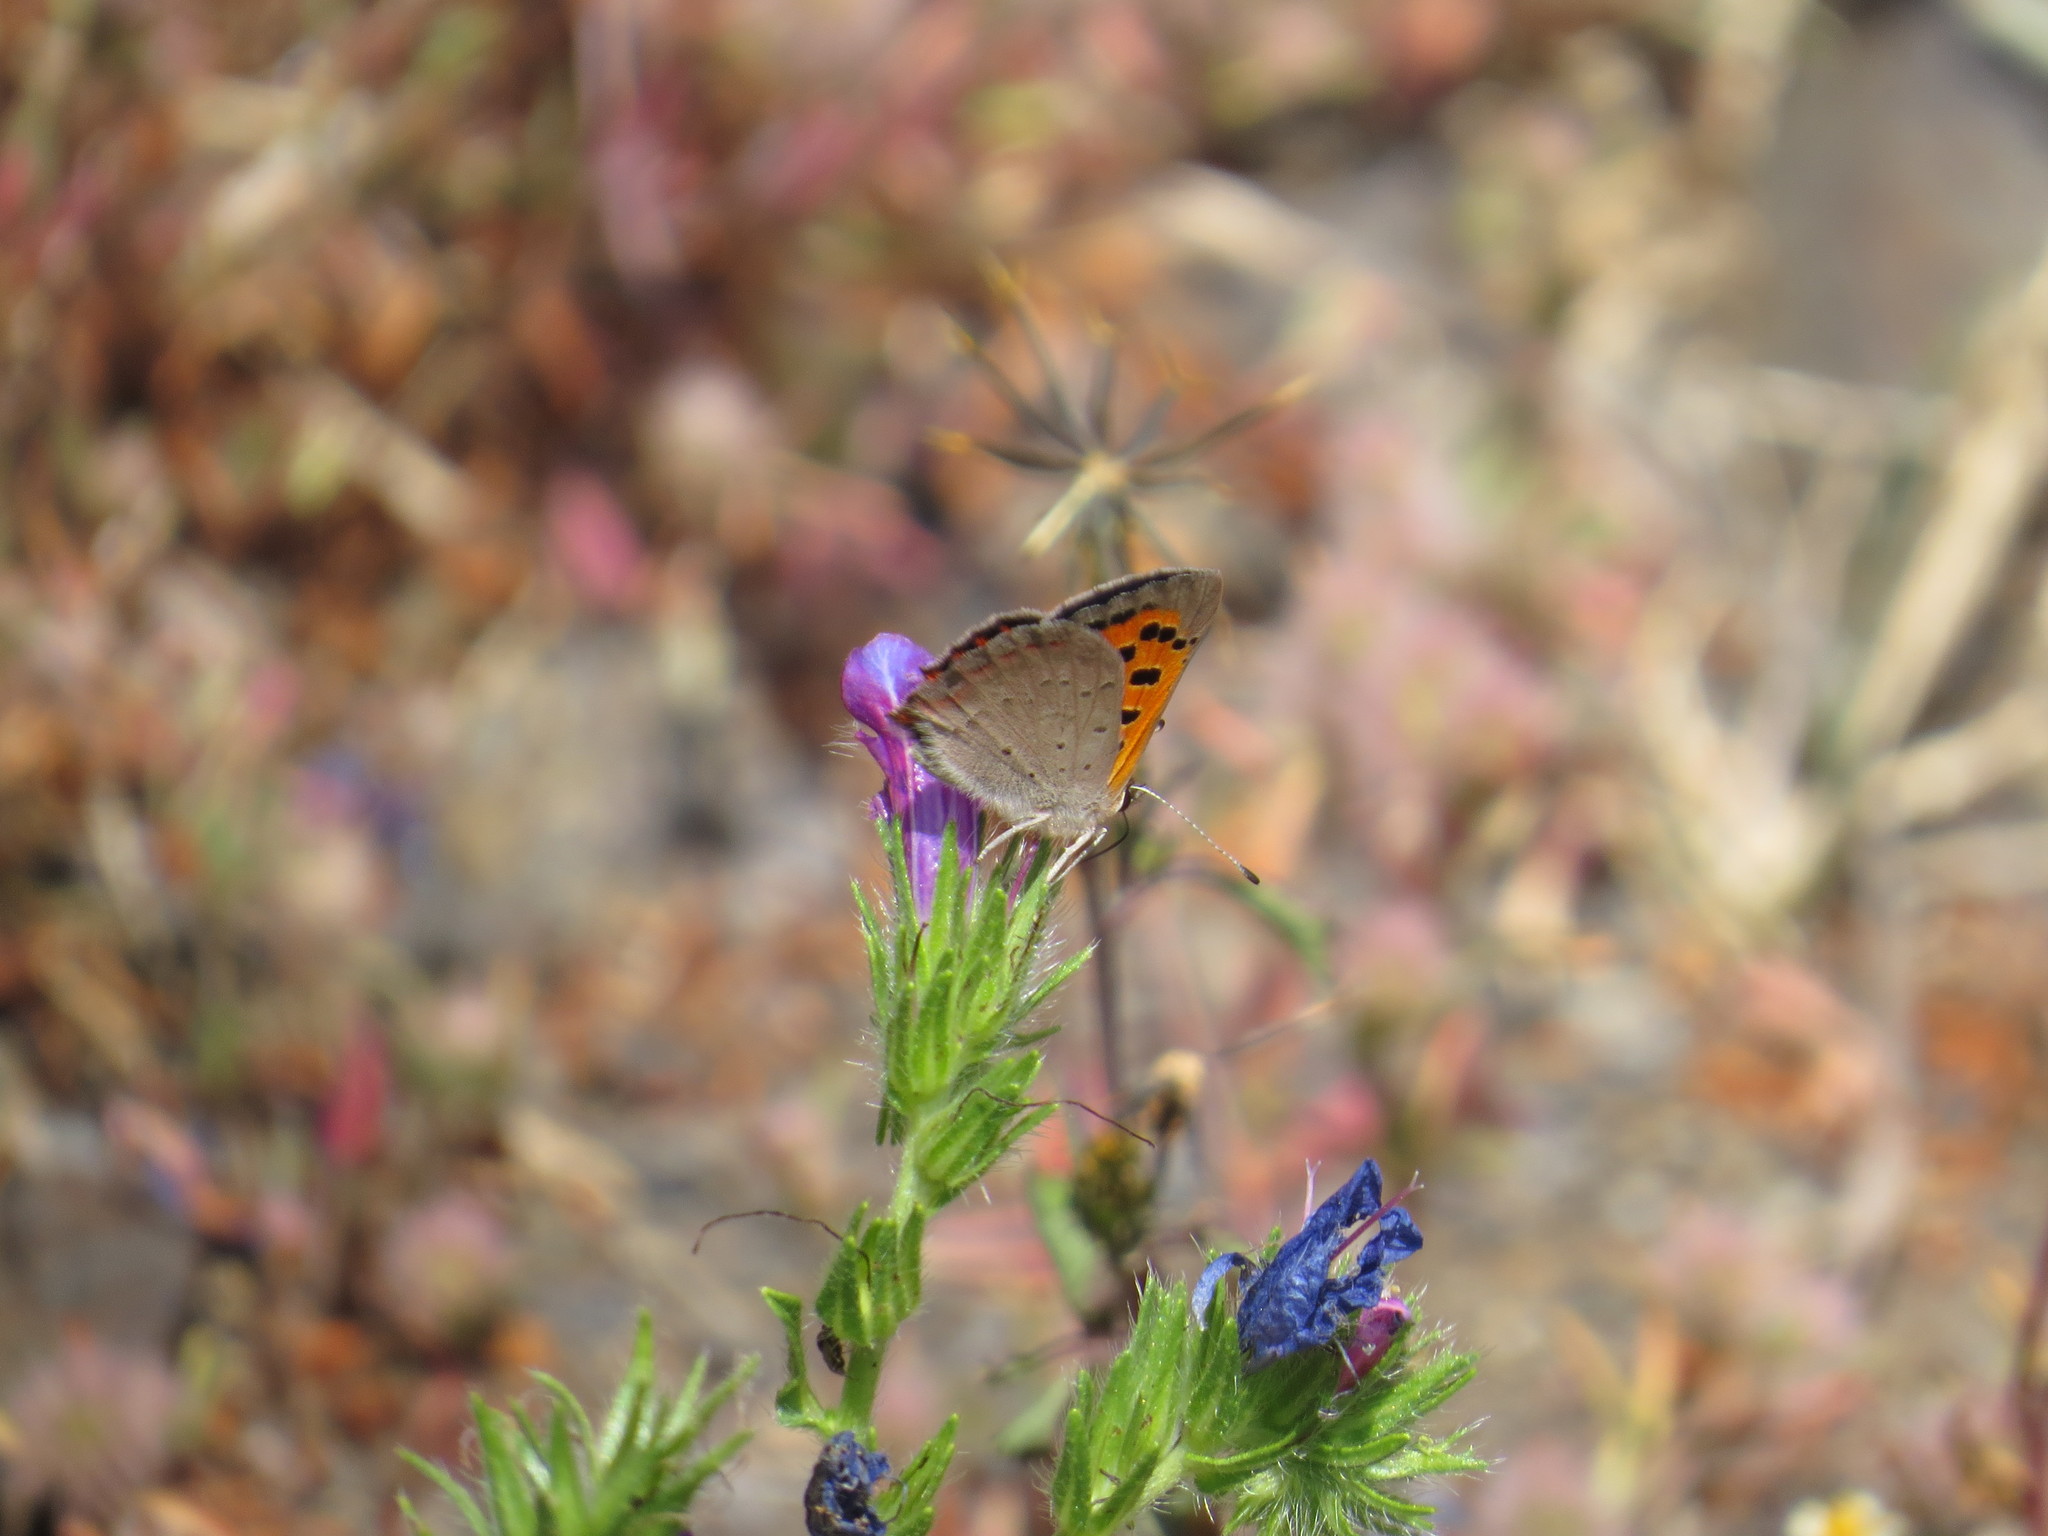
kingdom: Animalia
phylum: Arthropoda
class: Insecta
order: Lepidoptera
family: Lycaenidae
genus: Lycaena
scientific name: Lycaena phlaeas
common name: Small copper
